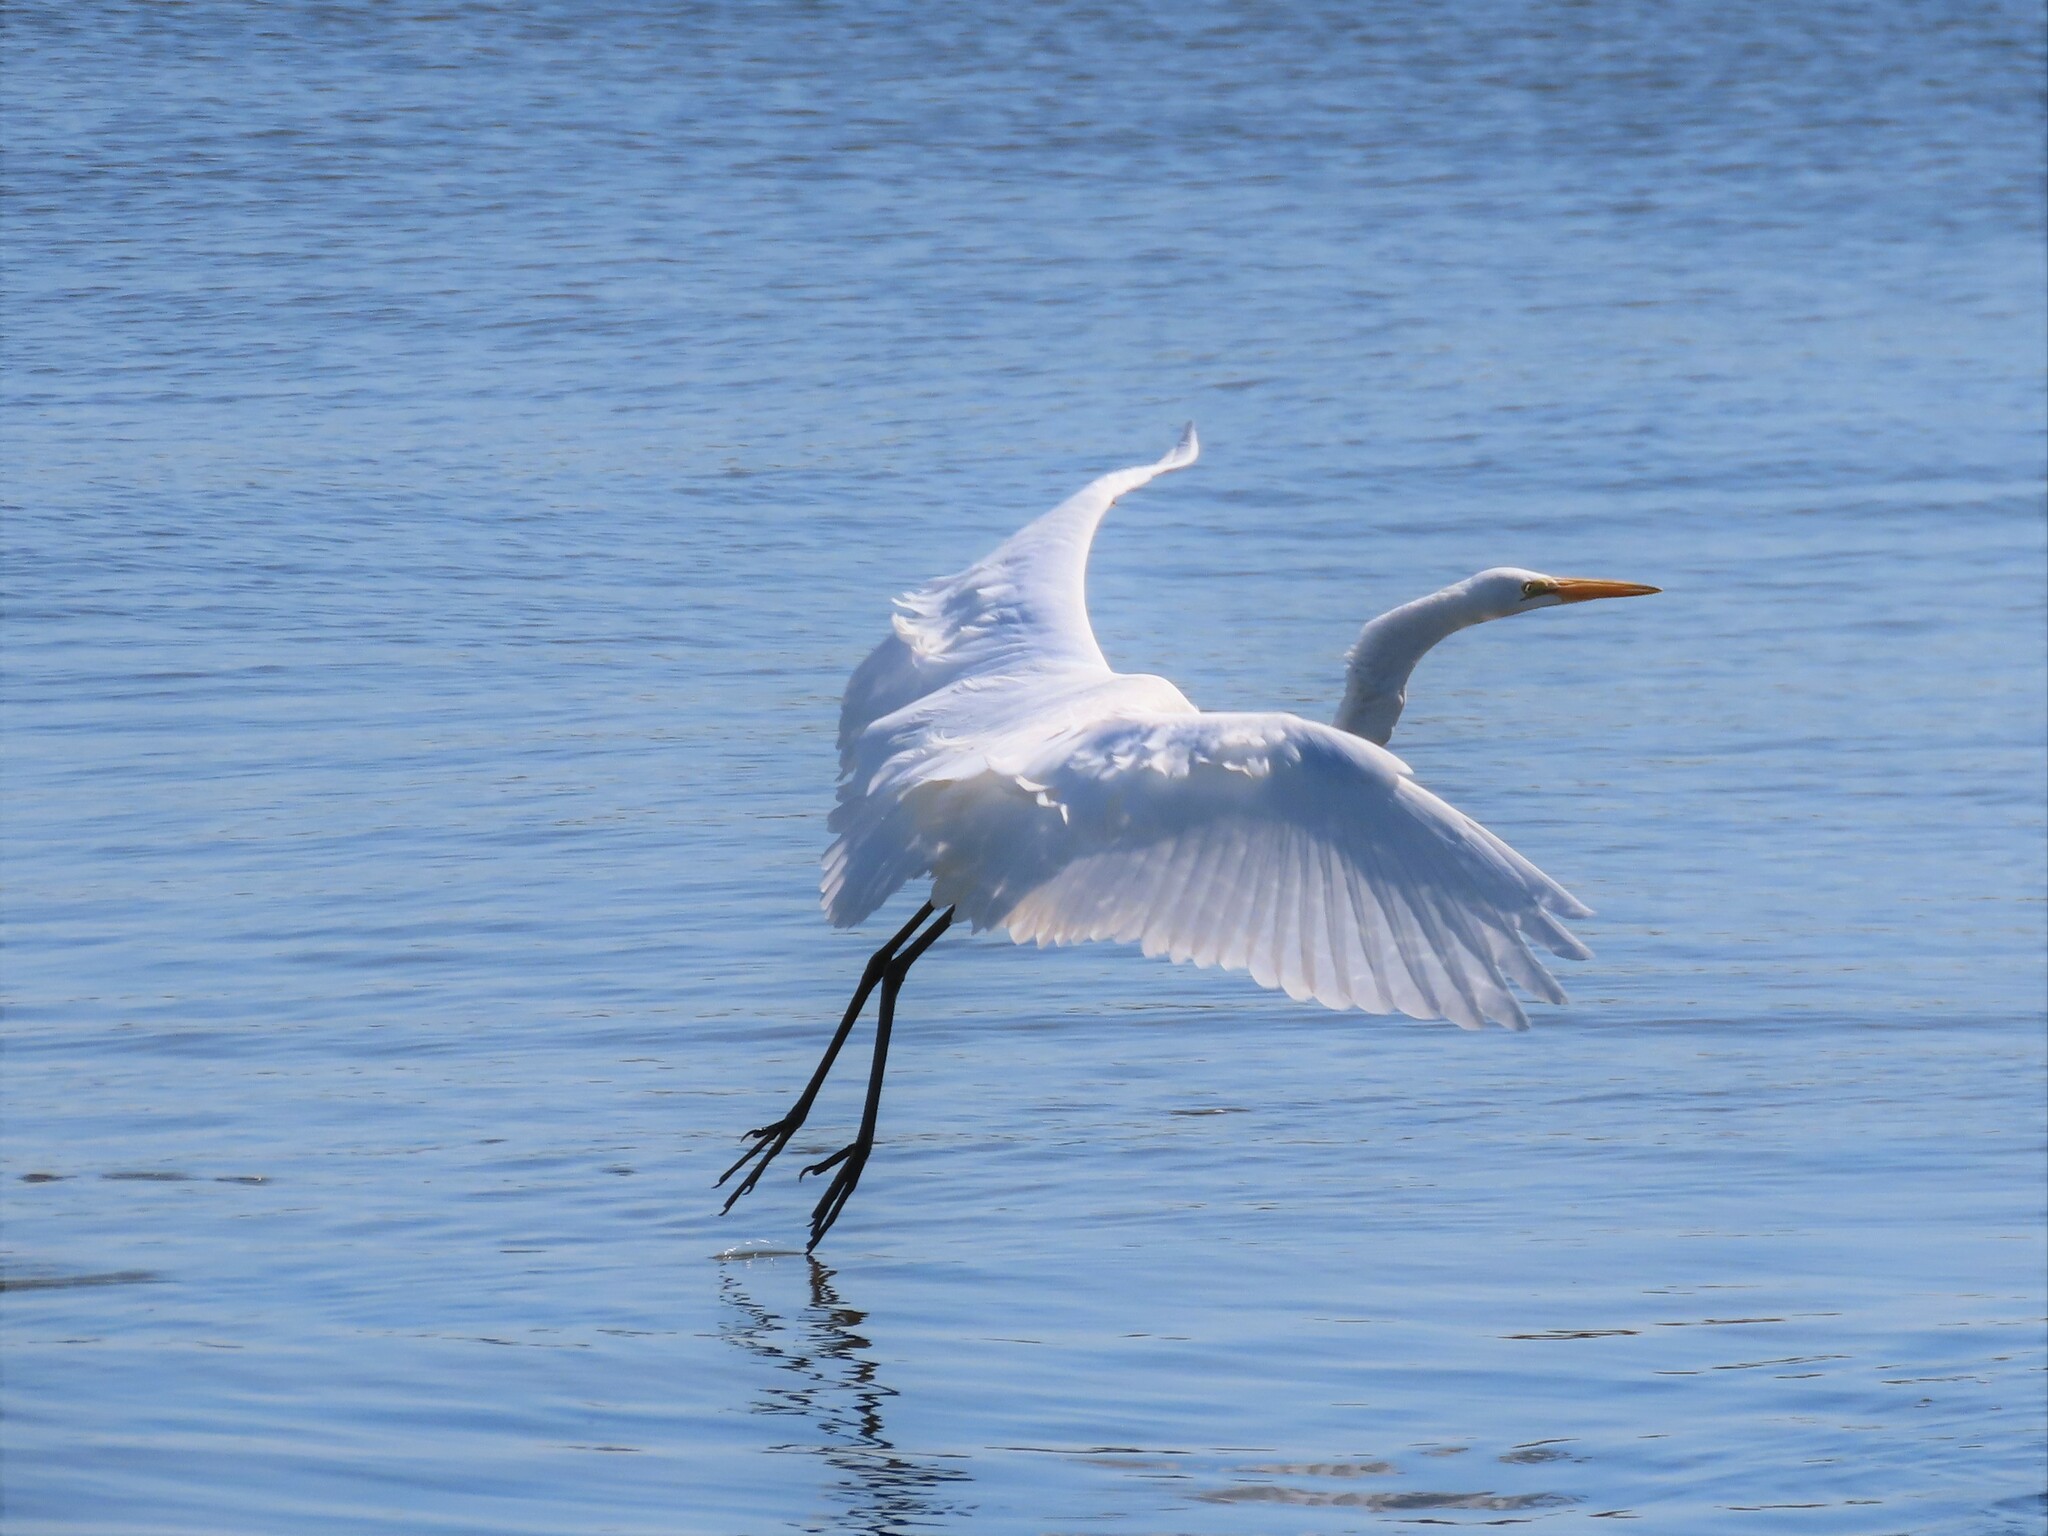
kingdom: Animalia
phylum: Chordata
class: Aves
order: Pelecaniformes
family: Ardeidae
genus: Ardea
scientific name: Ardea alba
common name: Great egret
